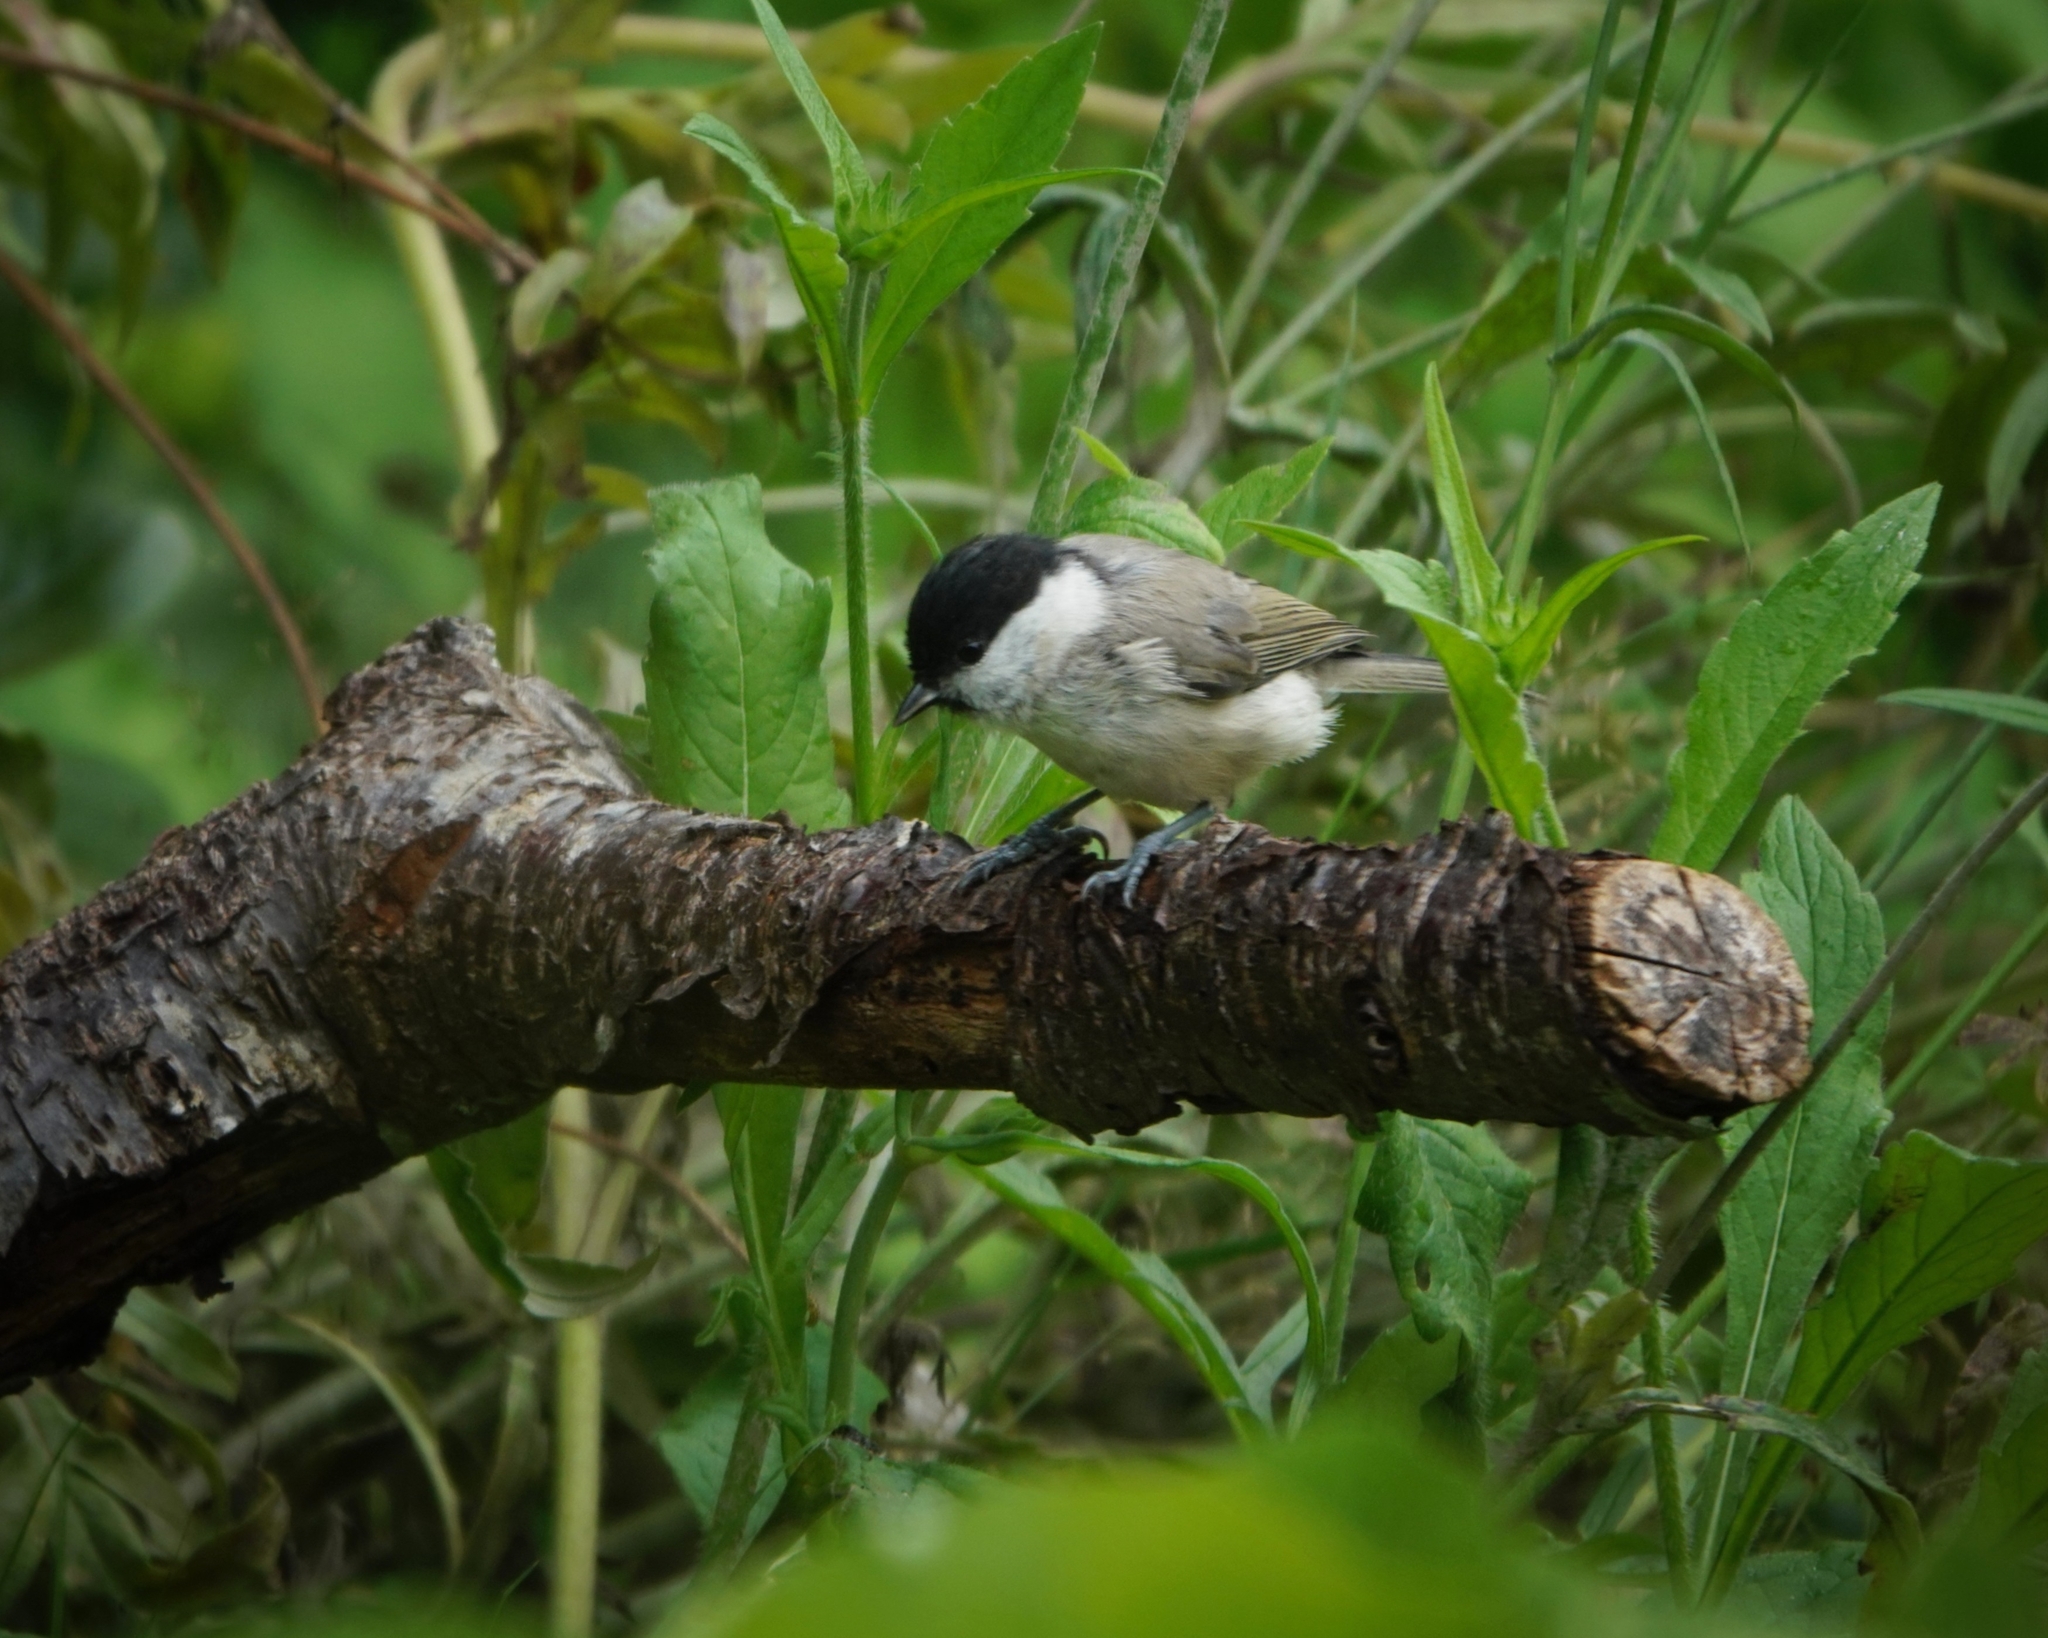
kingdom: Animalia
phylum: Chordata
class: Aves
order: Passeriformes
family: Paridae
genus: Poecile
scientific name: Poecile palustris
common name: Marsh tit
